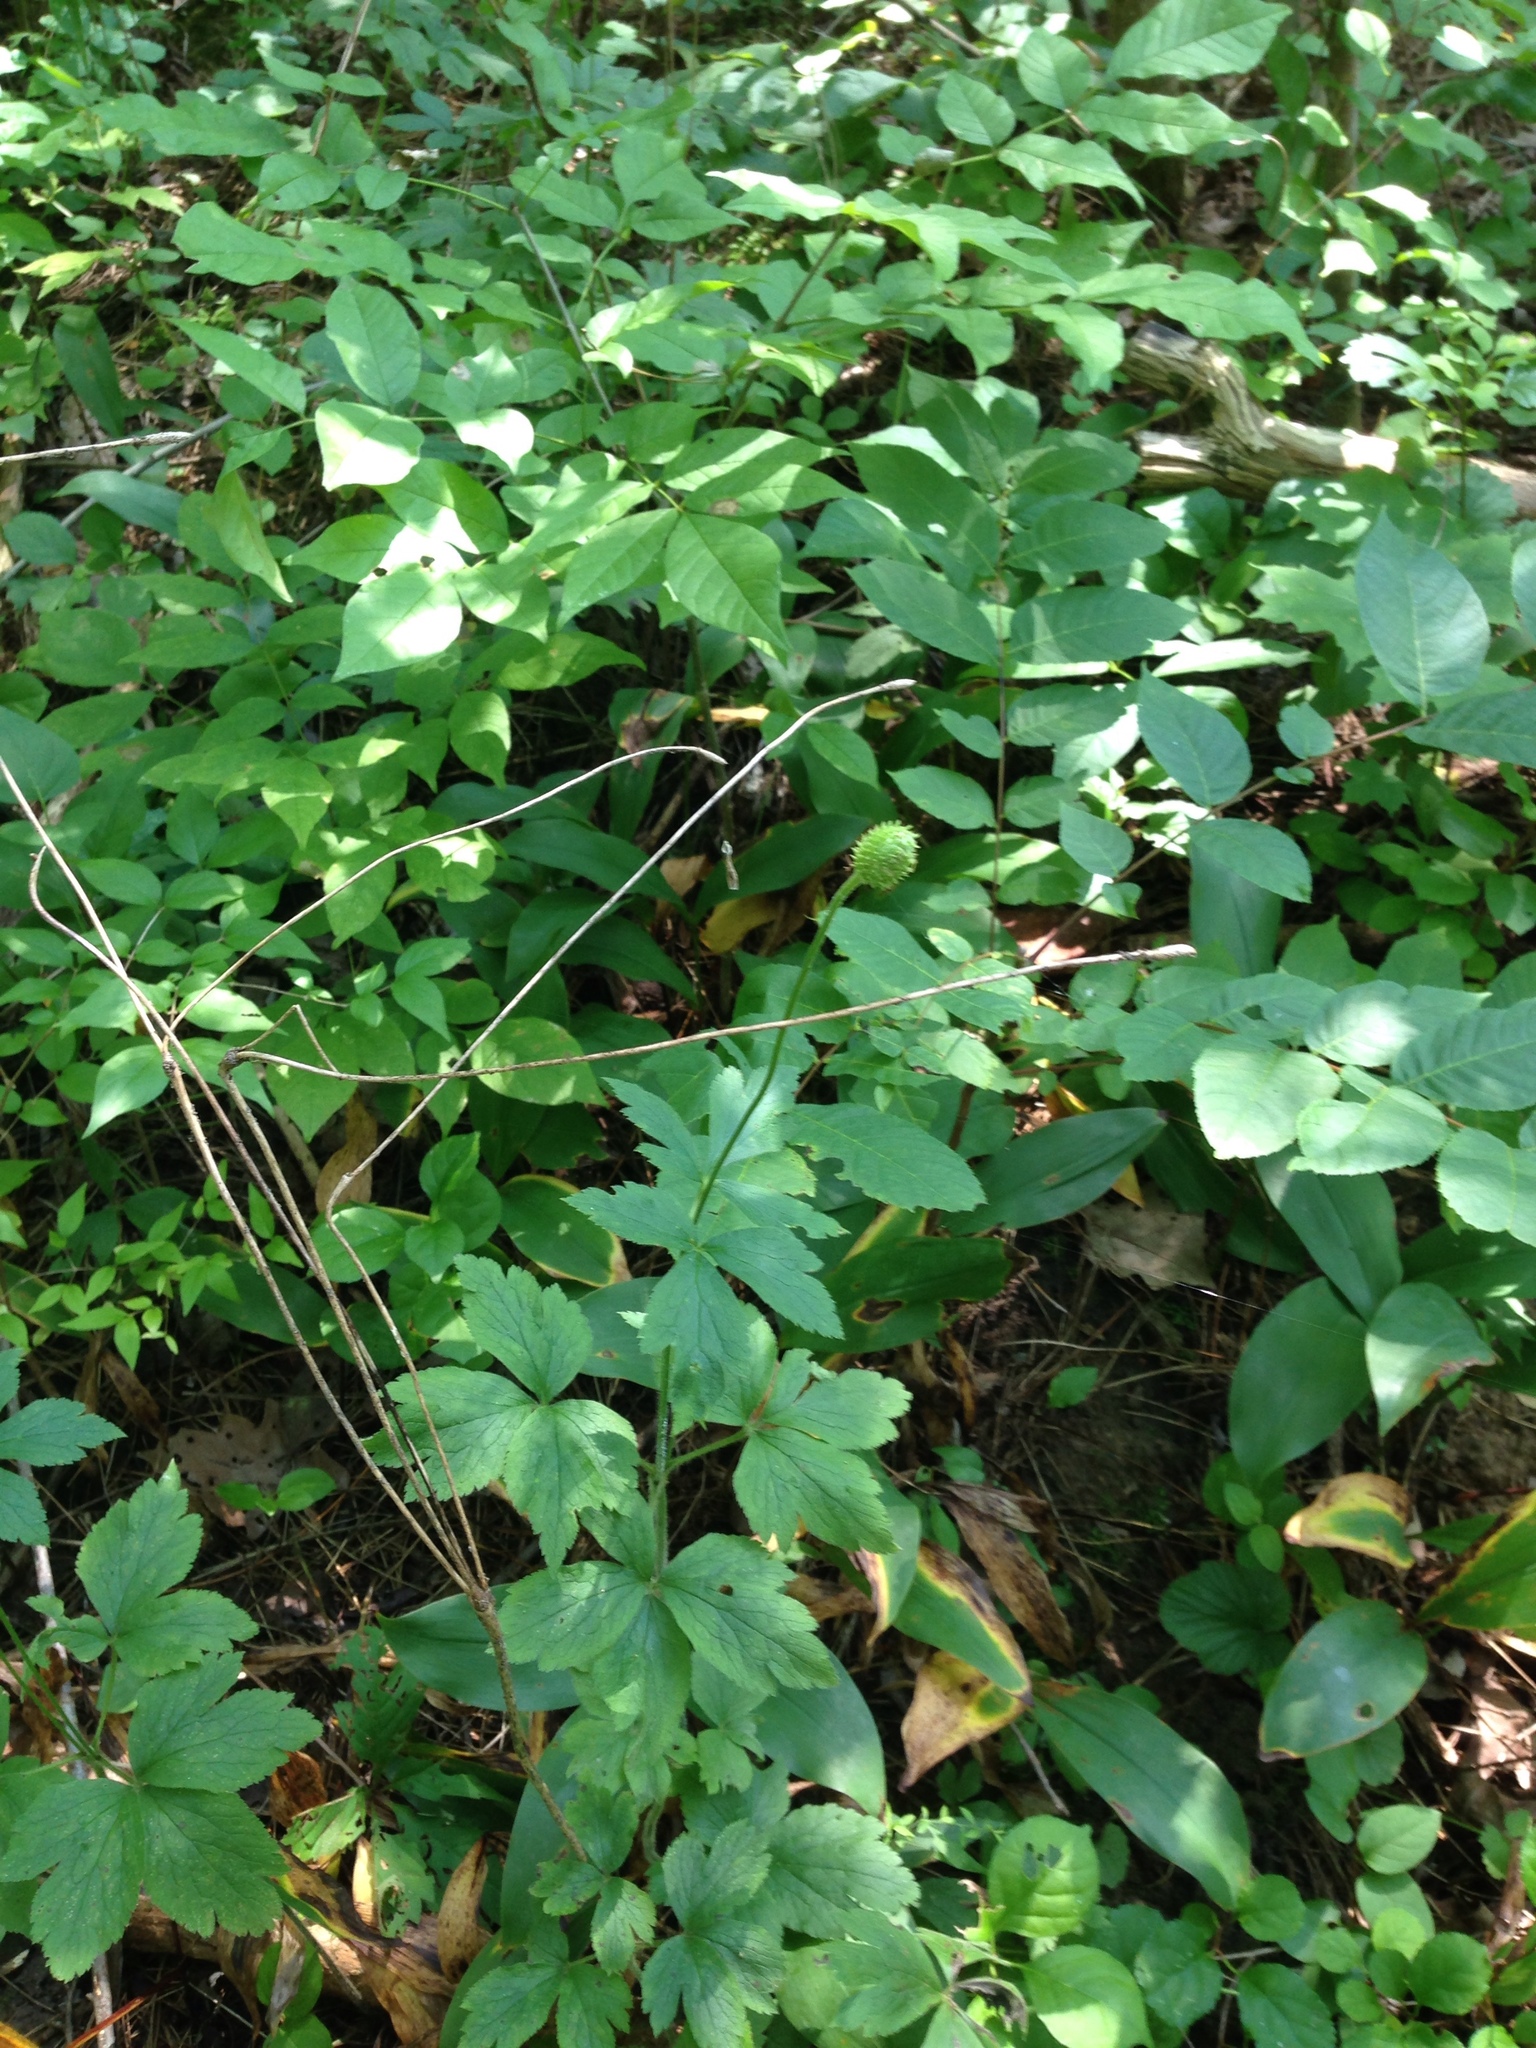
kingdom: Plantae
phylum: Tracheophyta
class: Magnoliopsida
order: Ranunculales
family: Ranunculaceae
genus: Anemone
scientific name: Anemone virginiana
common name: Tall anemone
